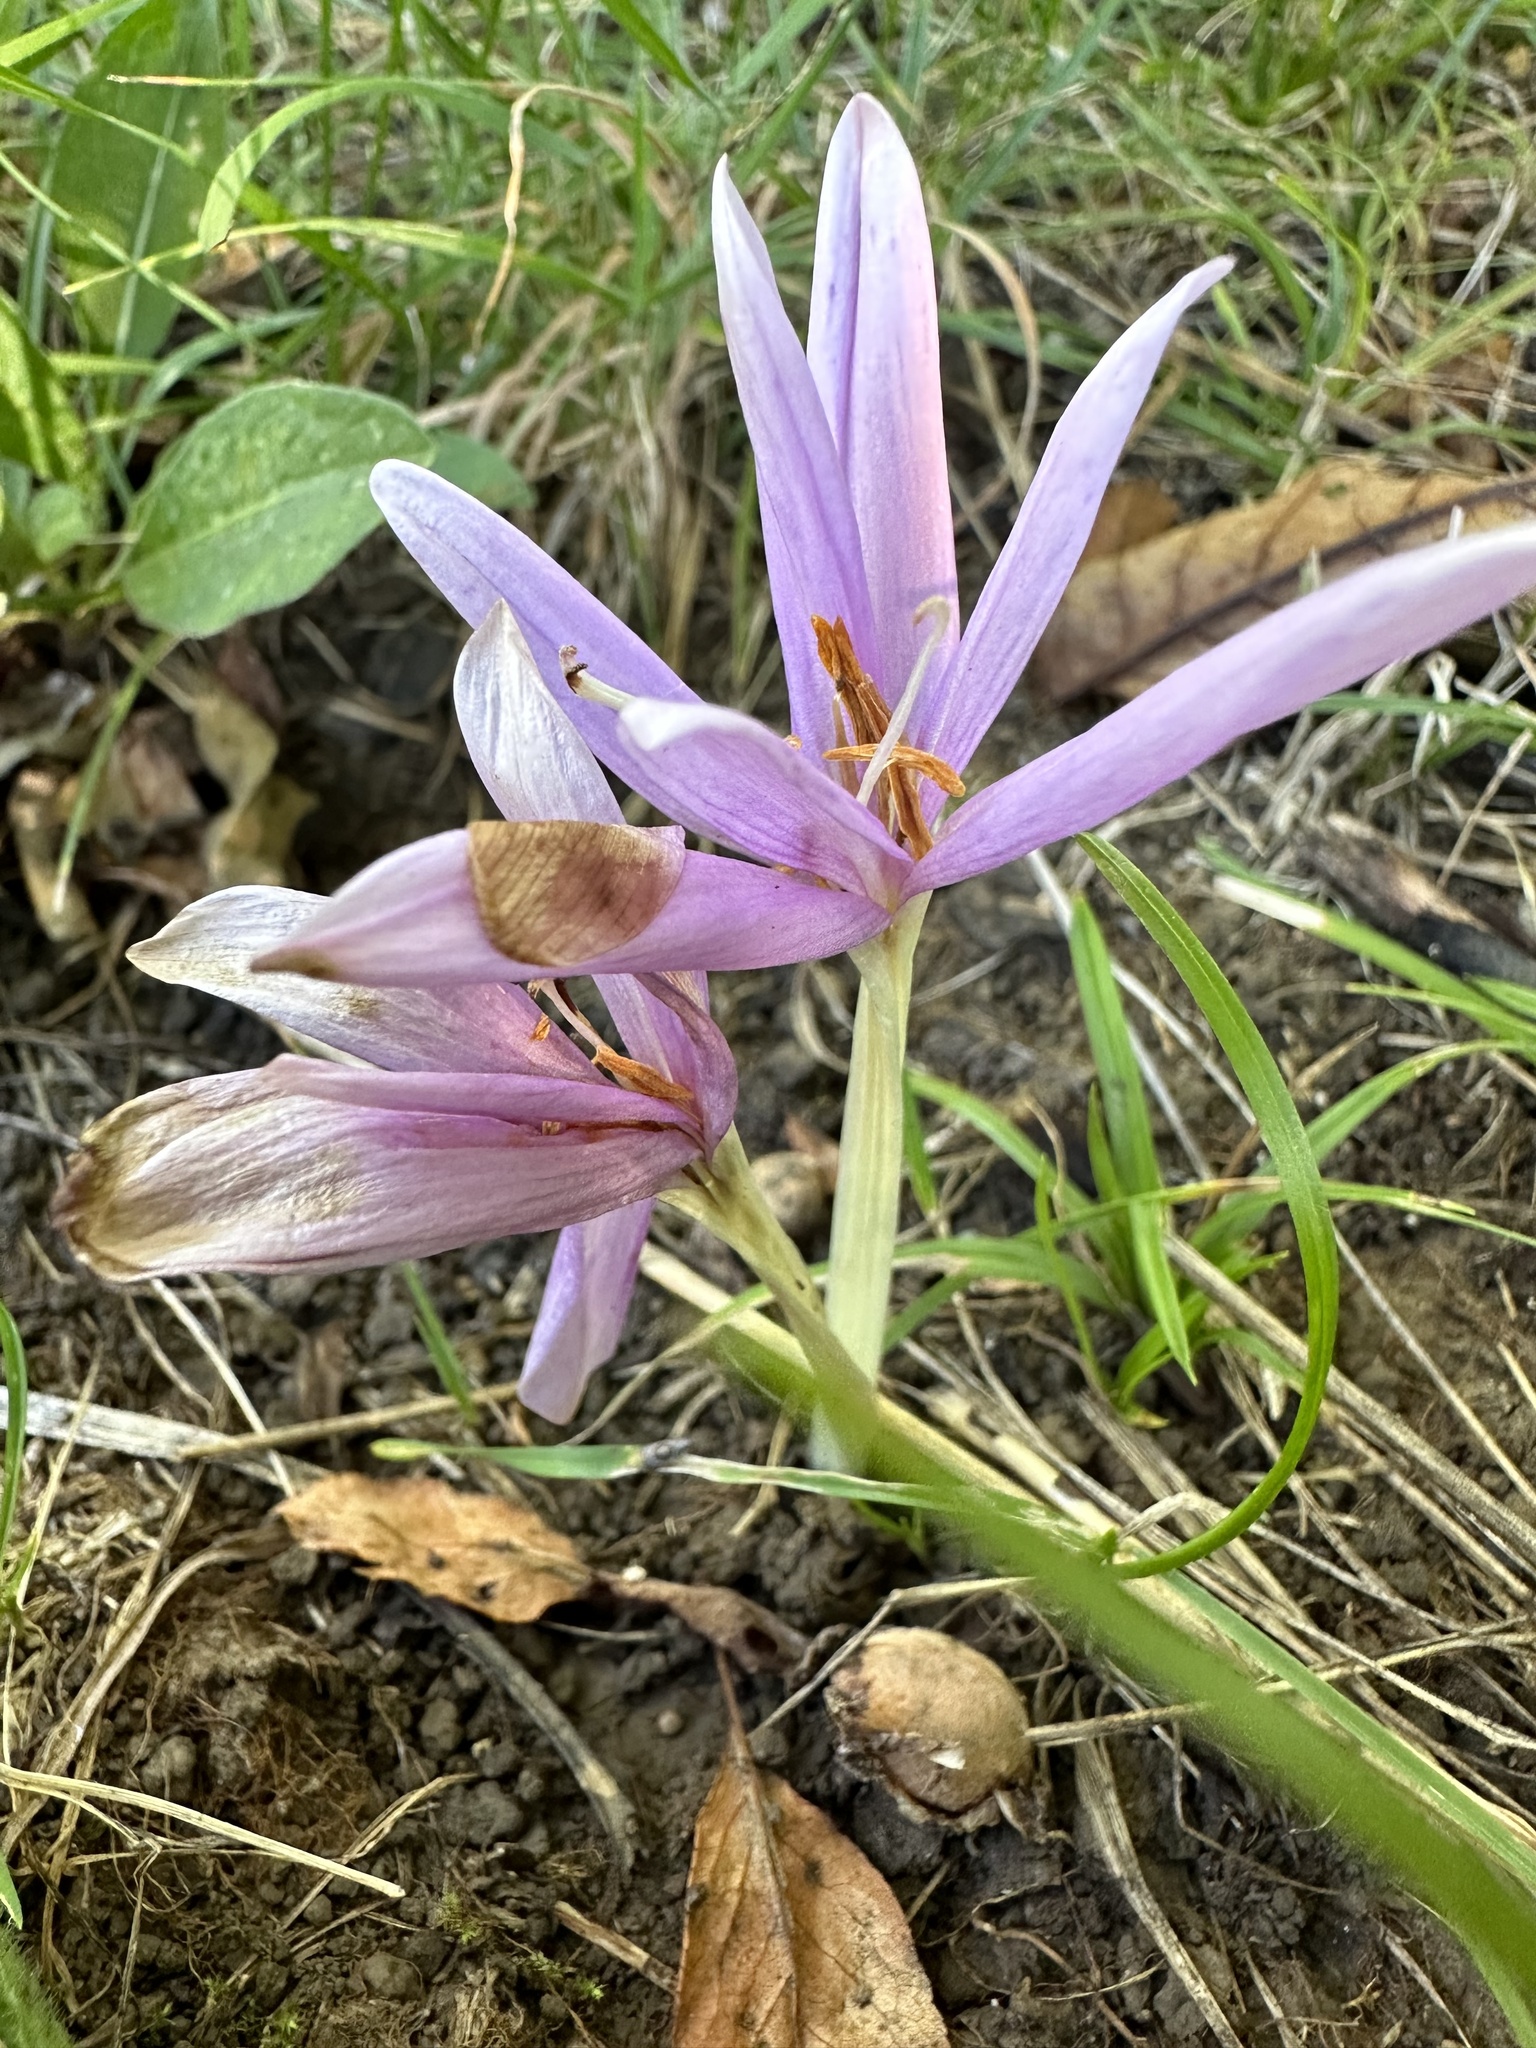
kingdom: Plantae
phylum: Tracheophyta
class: Liliopsida
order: Liliales
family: Colchicaceae
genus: Colchicum
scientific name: Colchicum autumnale
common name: Autumn crocus
